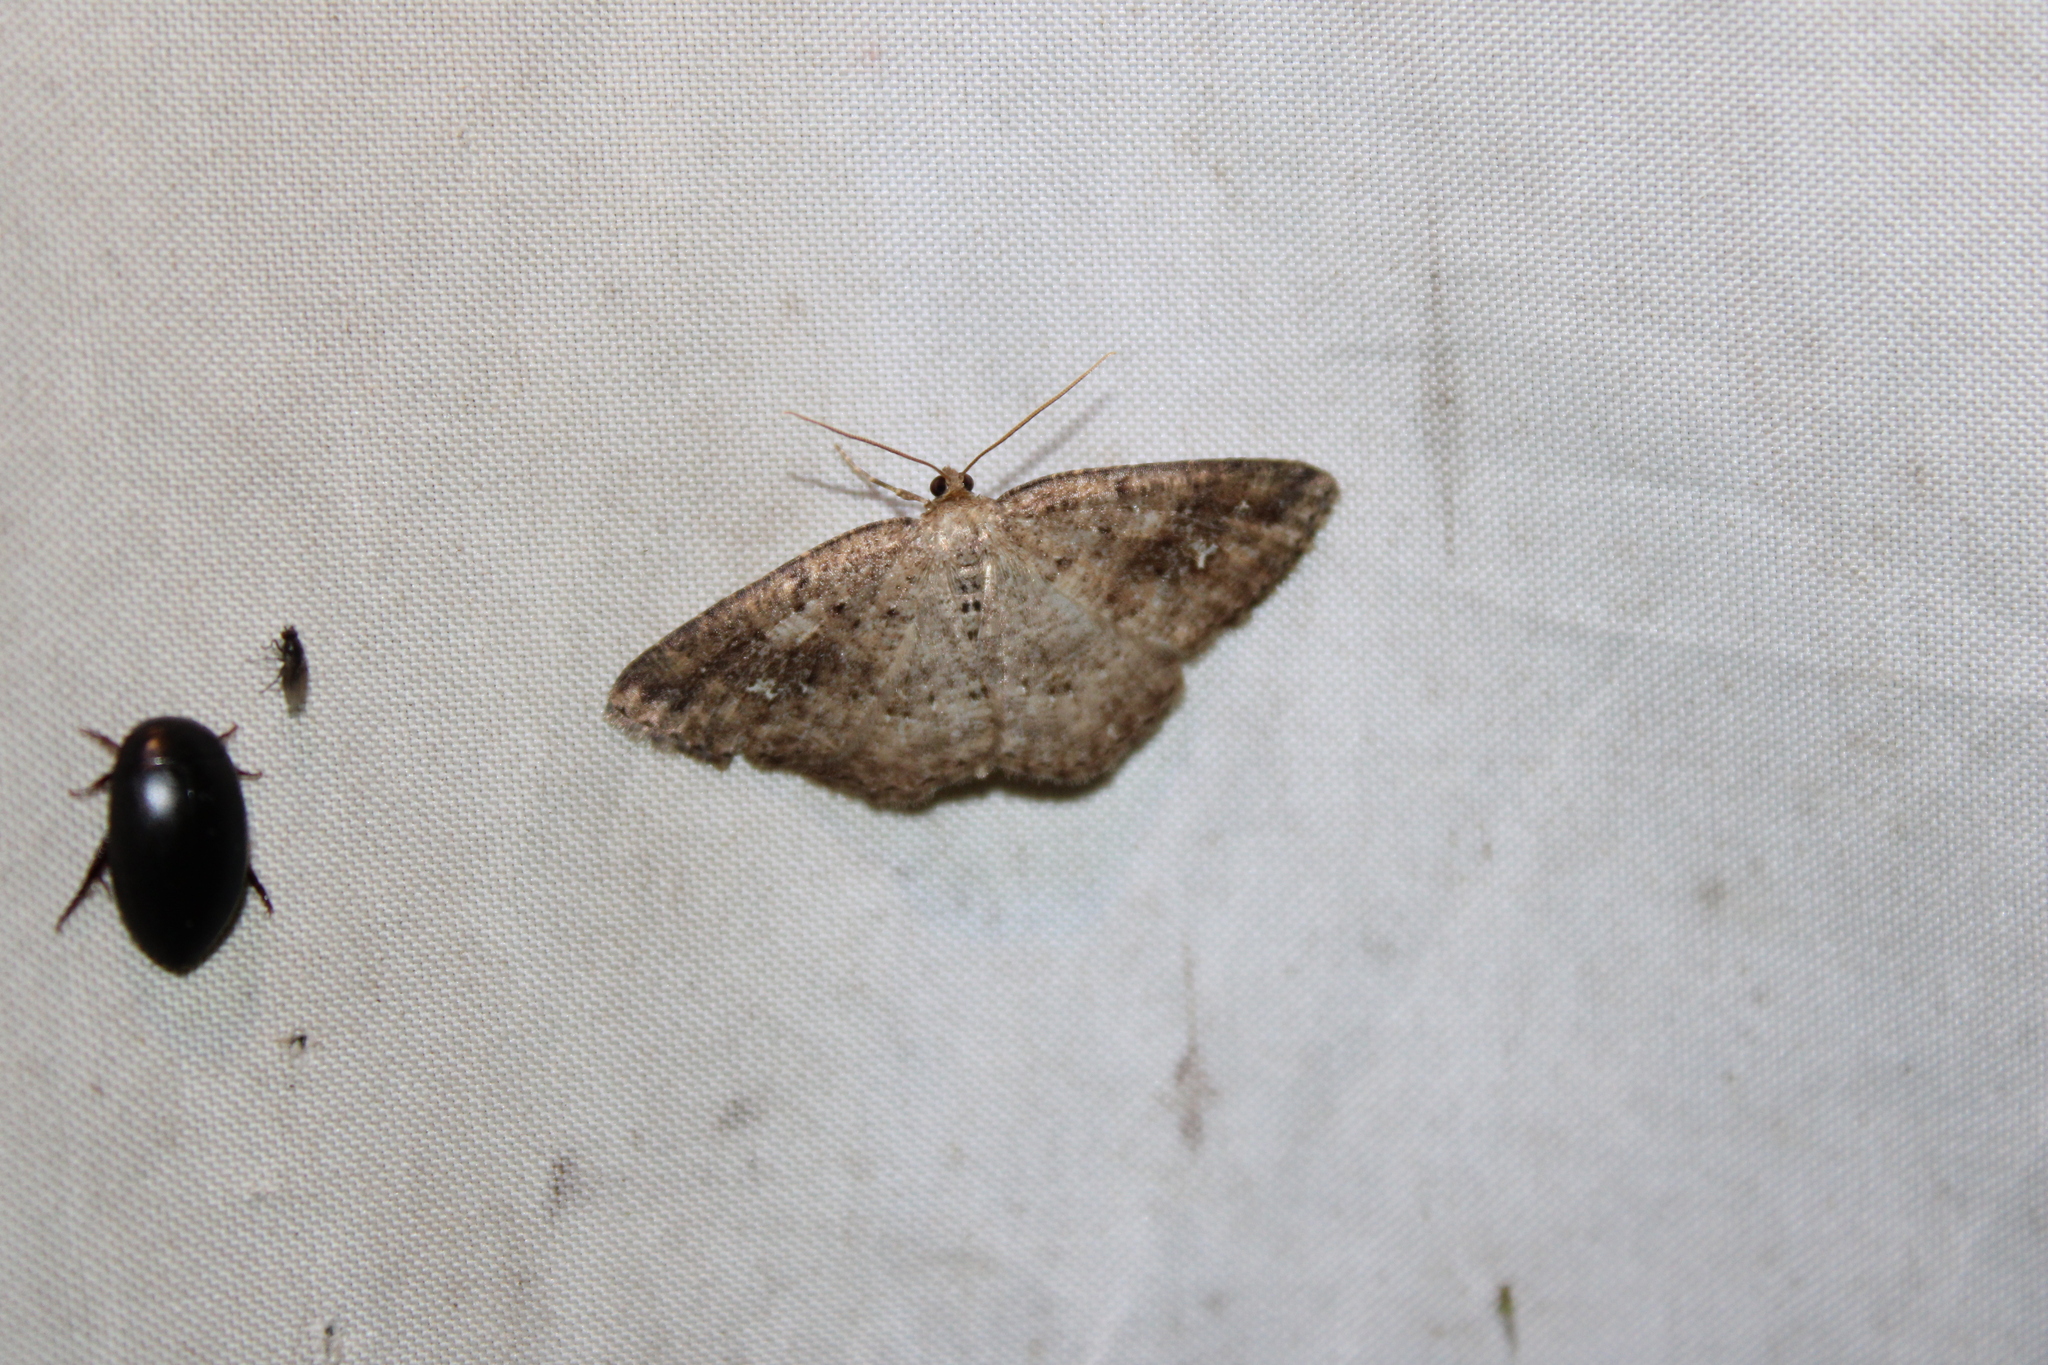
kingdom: Animalia
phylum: Arthropoda
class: Insecta
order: Lepidoptera
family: Geometridae
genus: Homochlodes
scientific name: Homochlodes fritillaria
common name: Pale homochlodes
